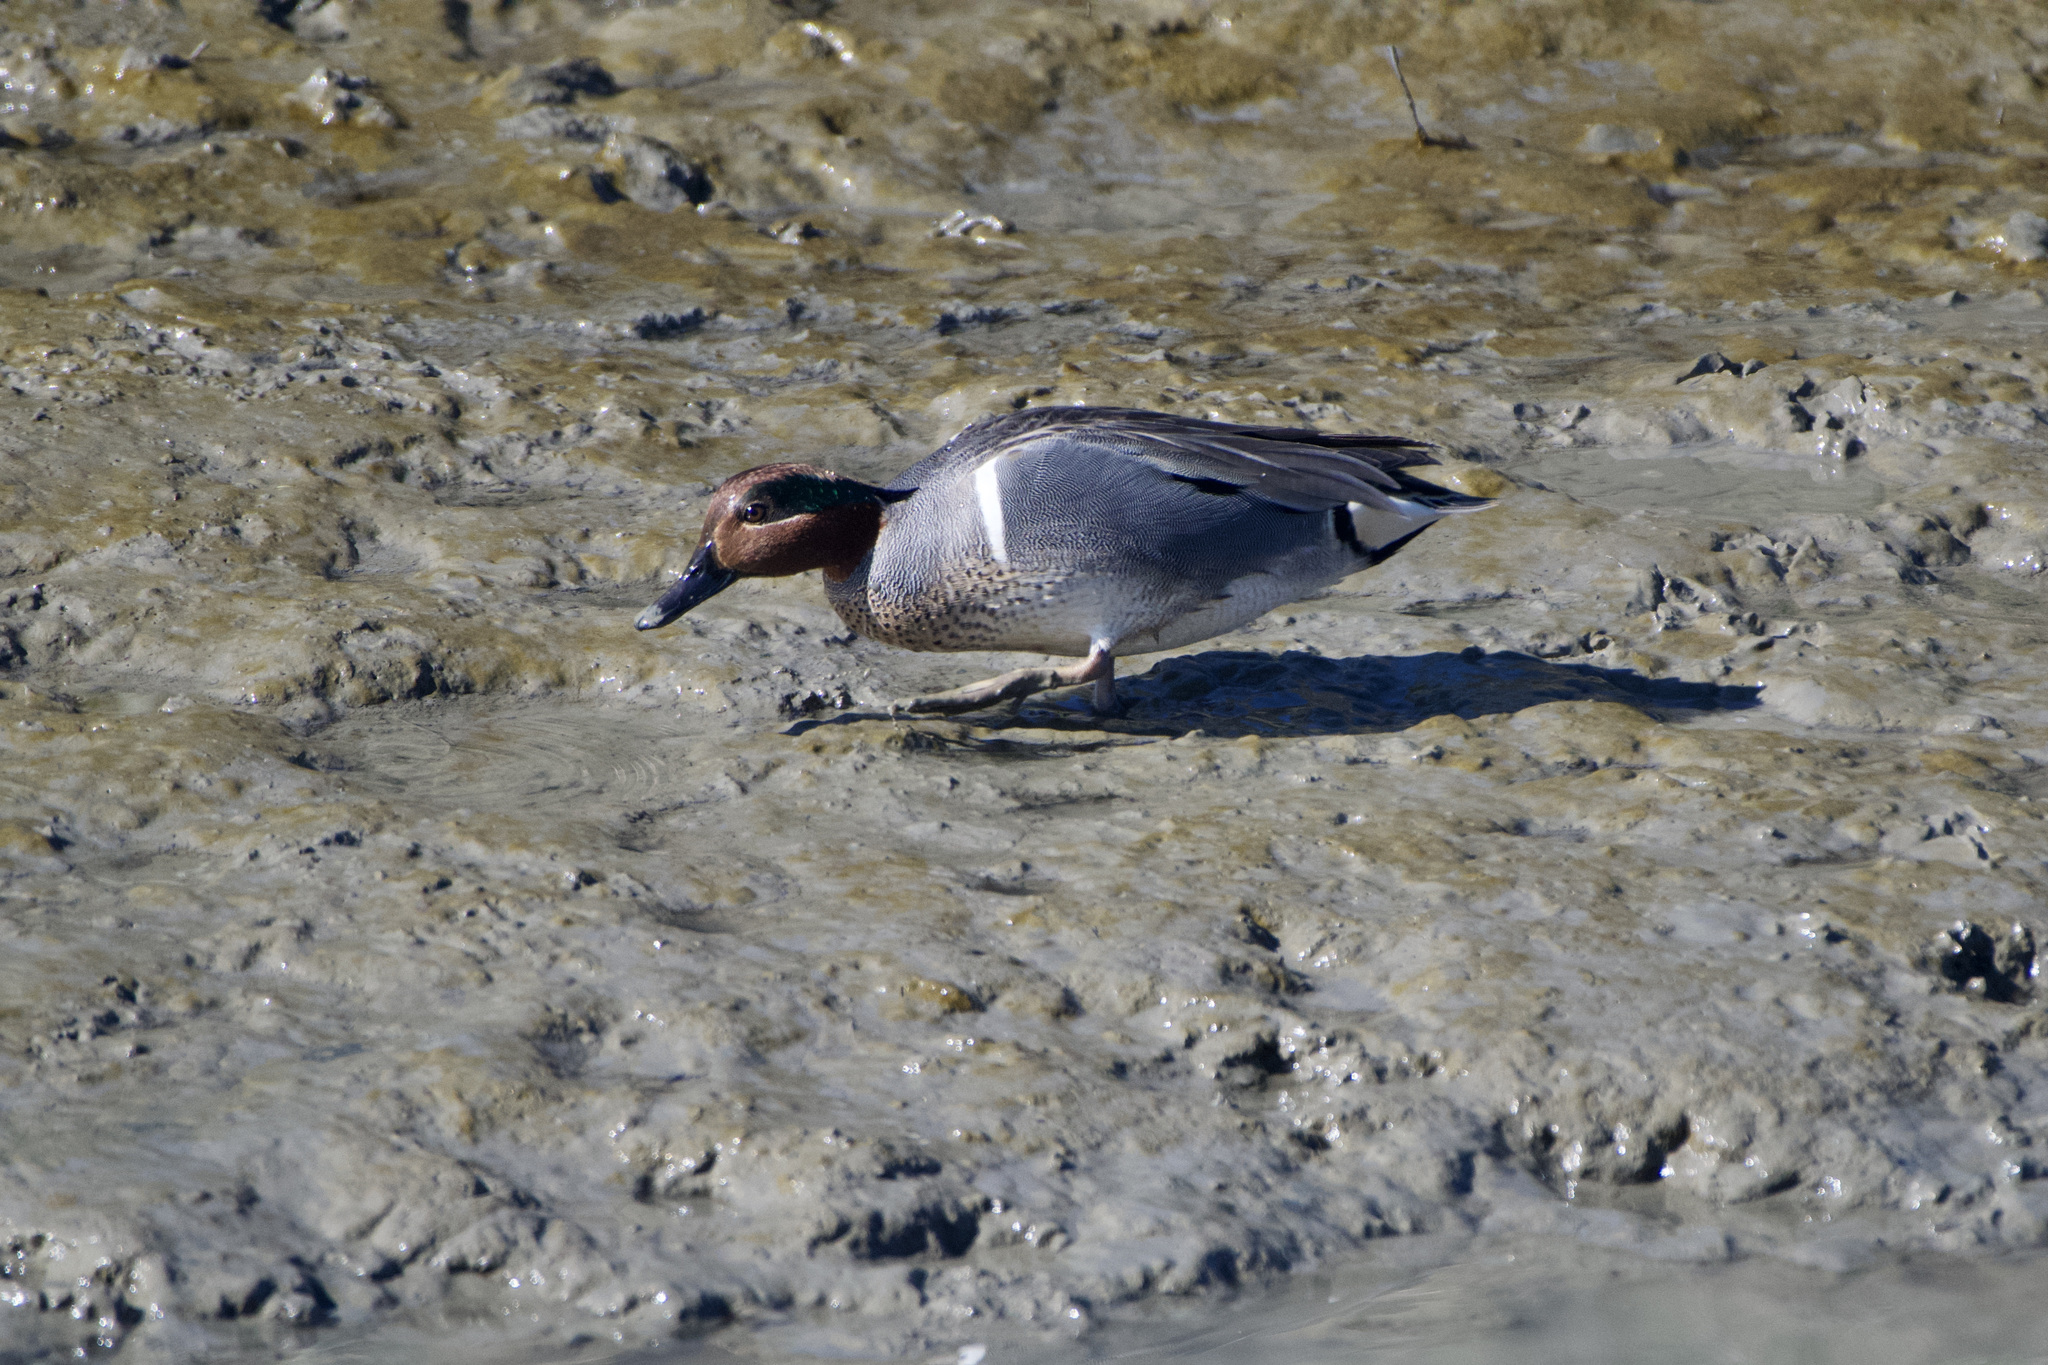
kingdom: Animalia
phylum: Chordata
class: Aves
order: Anseriformes
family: Anatidae
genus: Anas
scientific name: Anas crecca
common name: Eurasian teal
